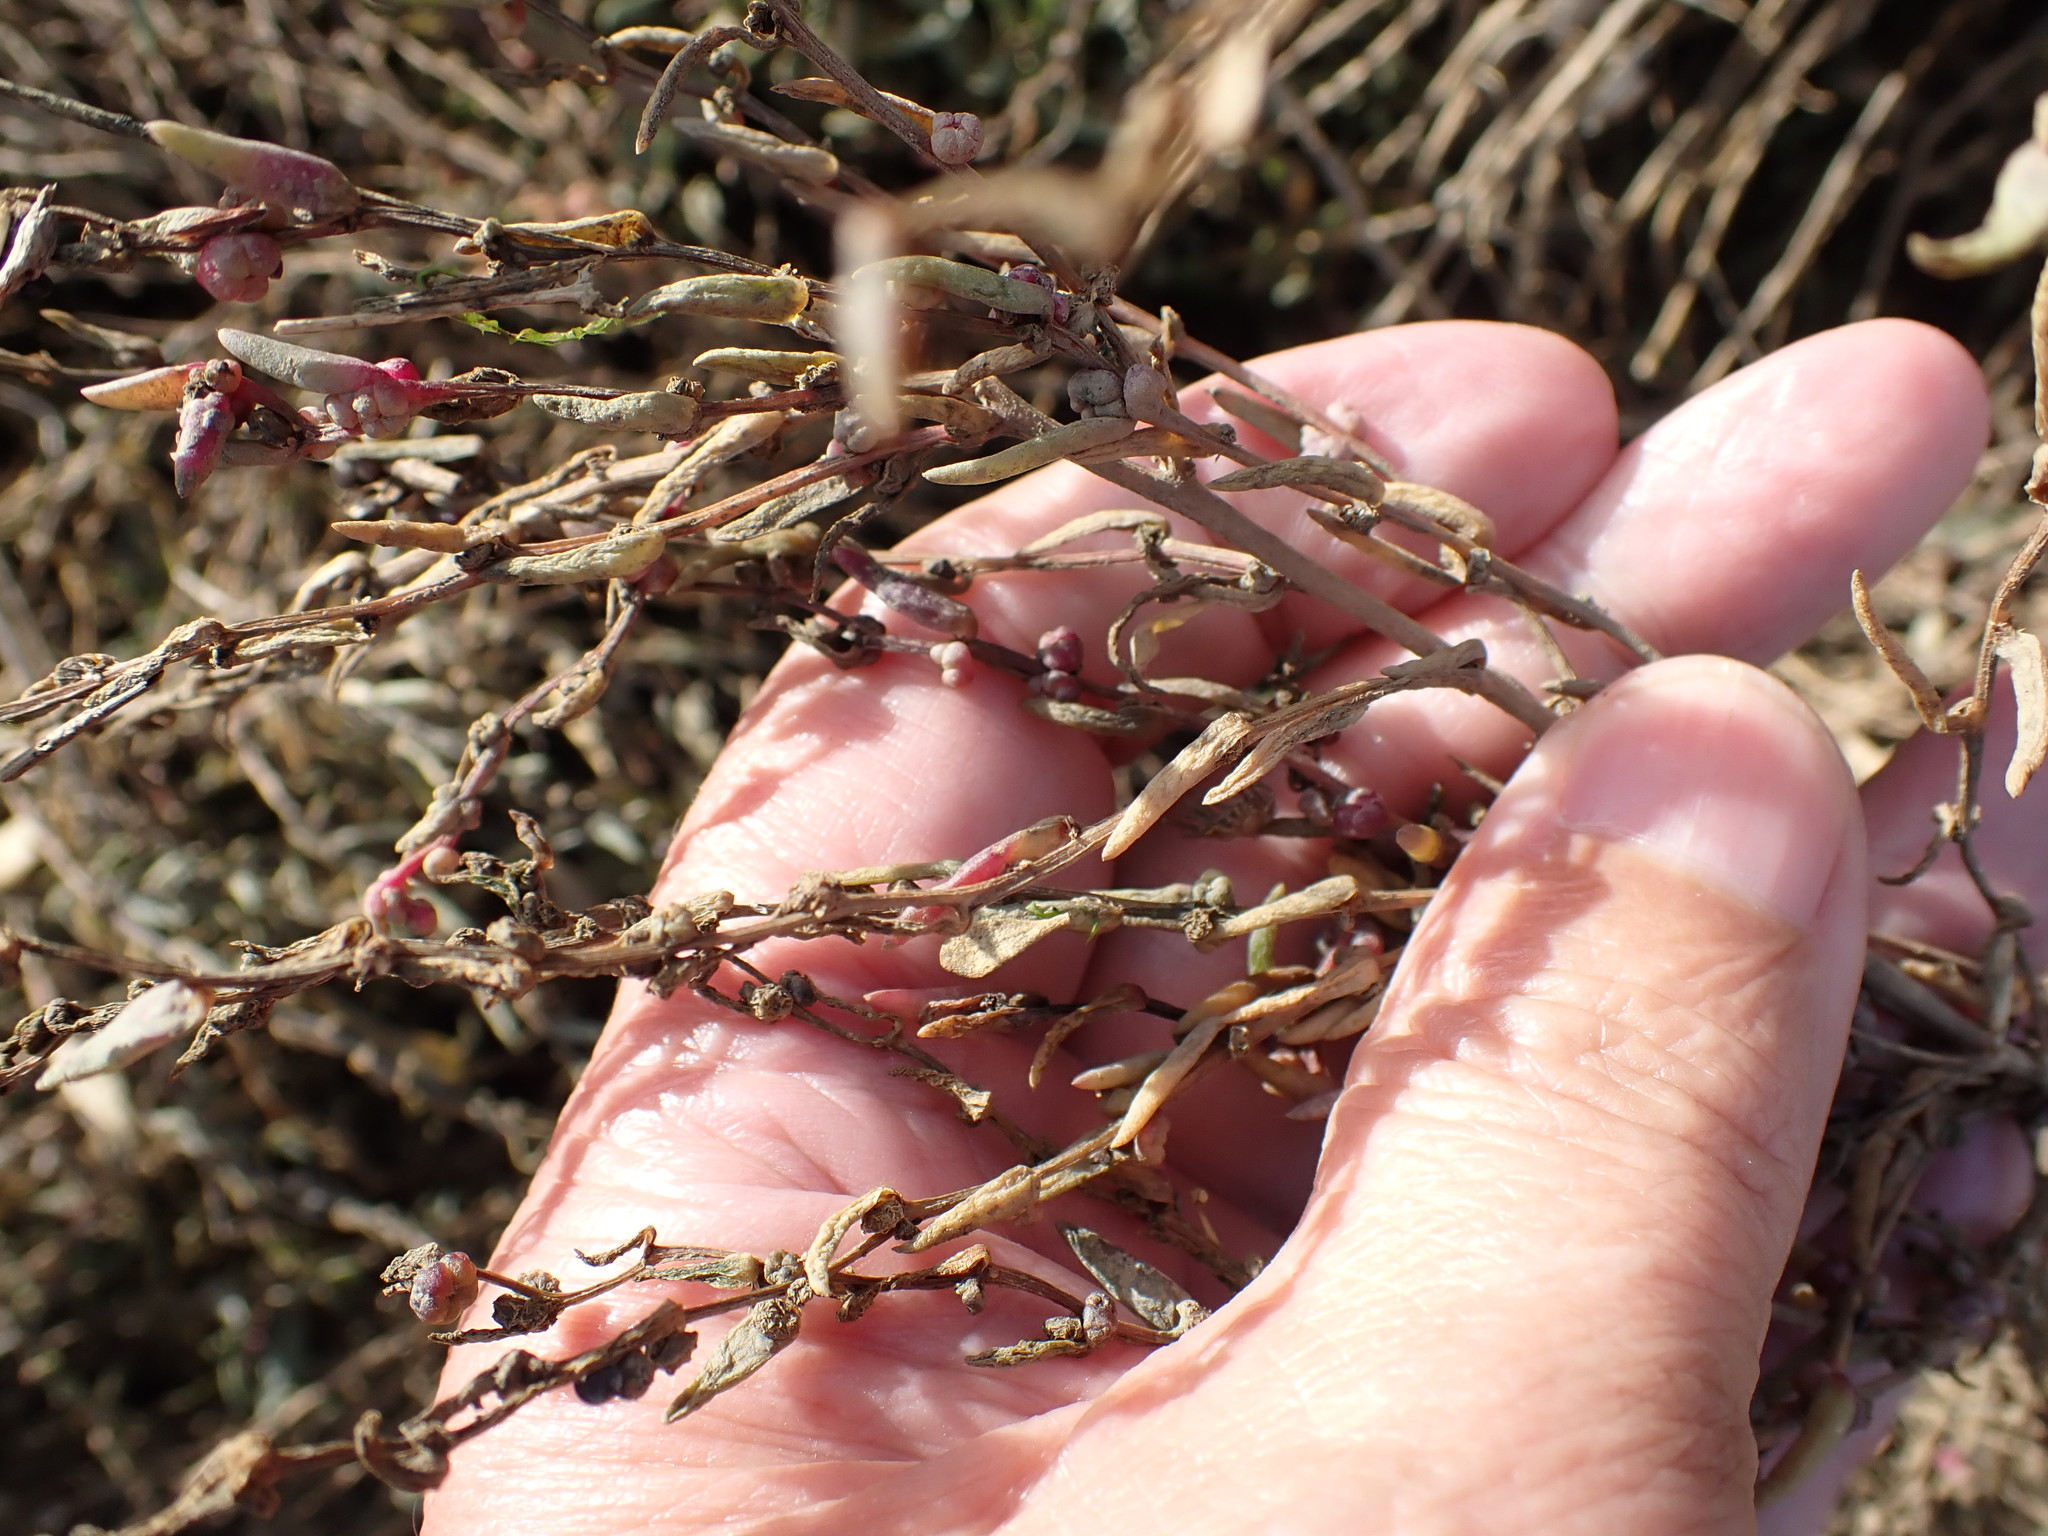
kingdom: Plantae
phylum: Tracheophyta
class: Magnoliopsida
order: Caryophyllales
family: Amaranthaceae
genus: Suaeda
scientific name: Suaeda maritima
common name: Annual sea-blite
